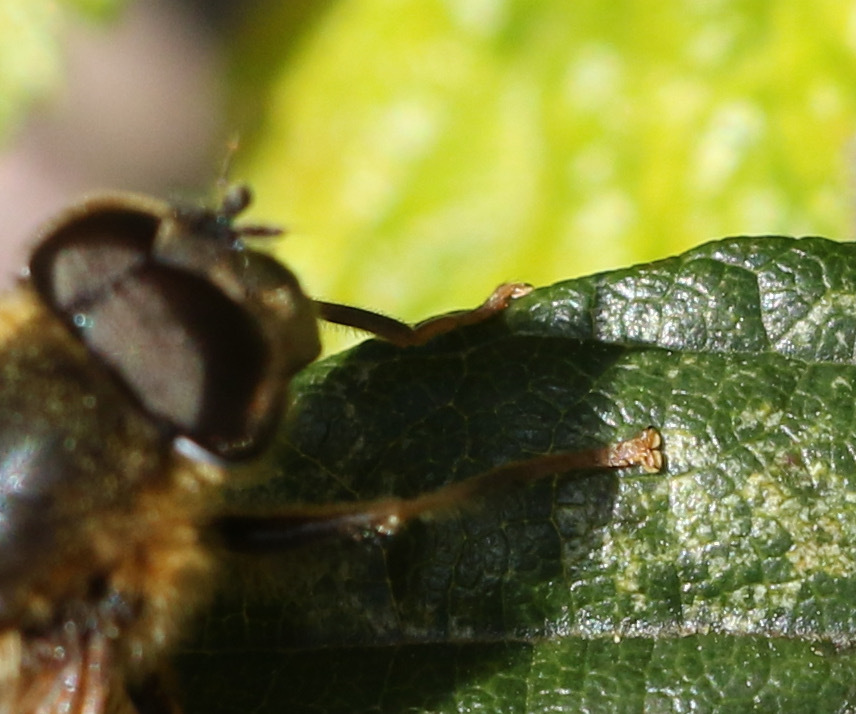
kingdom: Animalia
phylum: Arthropoda
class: Insecta
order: Diptera
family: Syrphidae
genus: Eristalis
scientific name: Eristalis pertinax
